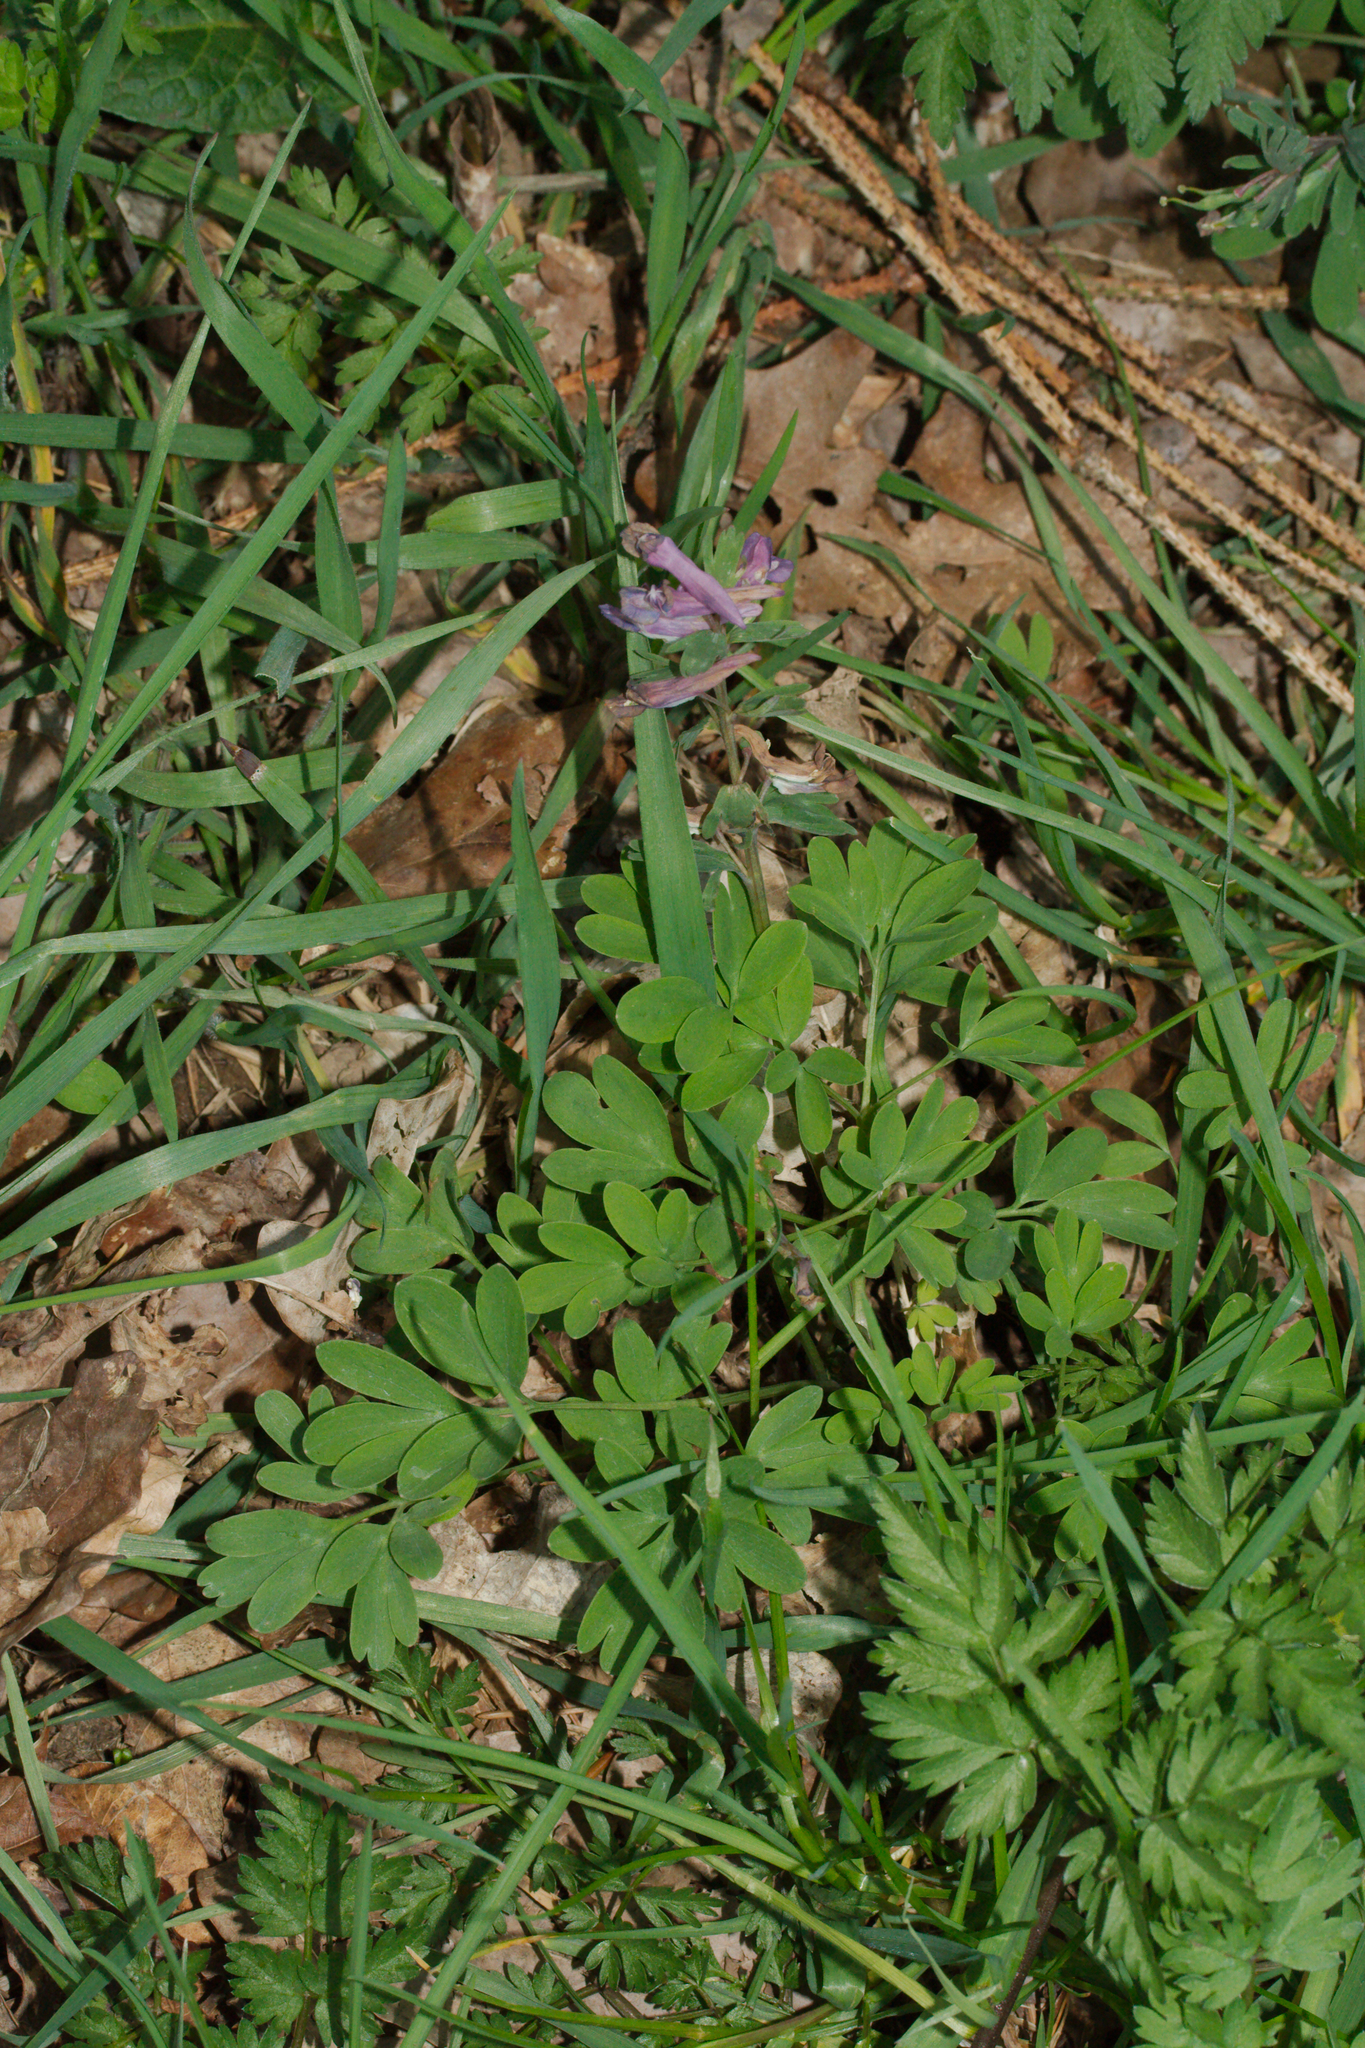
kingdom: Plantae
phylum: Tracheophyta
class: Magnoliopsida
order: Ranunculales
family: Papaveraceae
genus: Corydalis
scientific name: Corydalis solida
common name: Bird-in-a-bush
